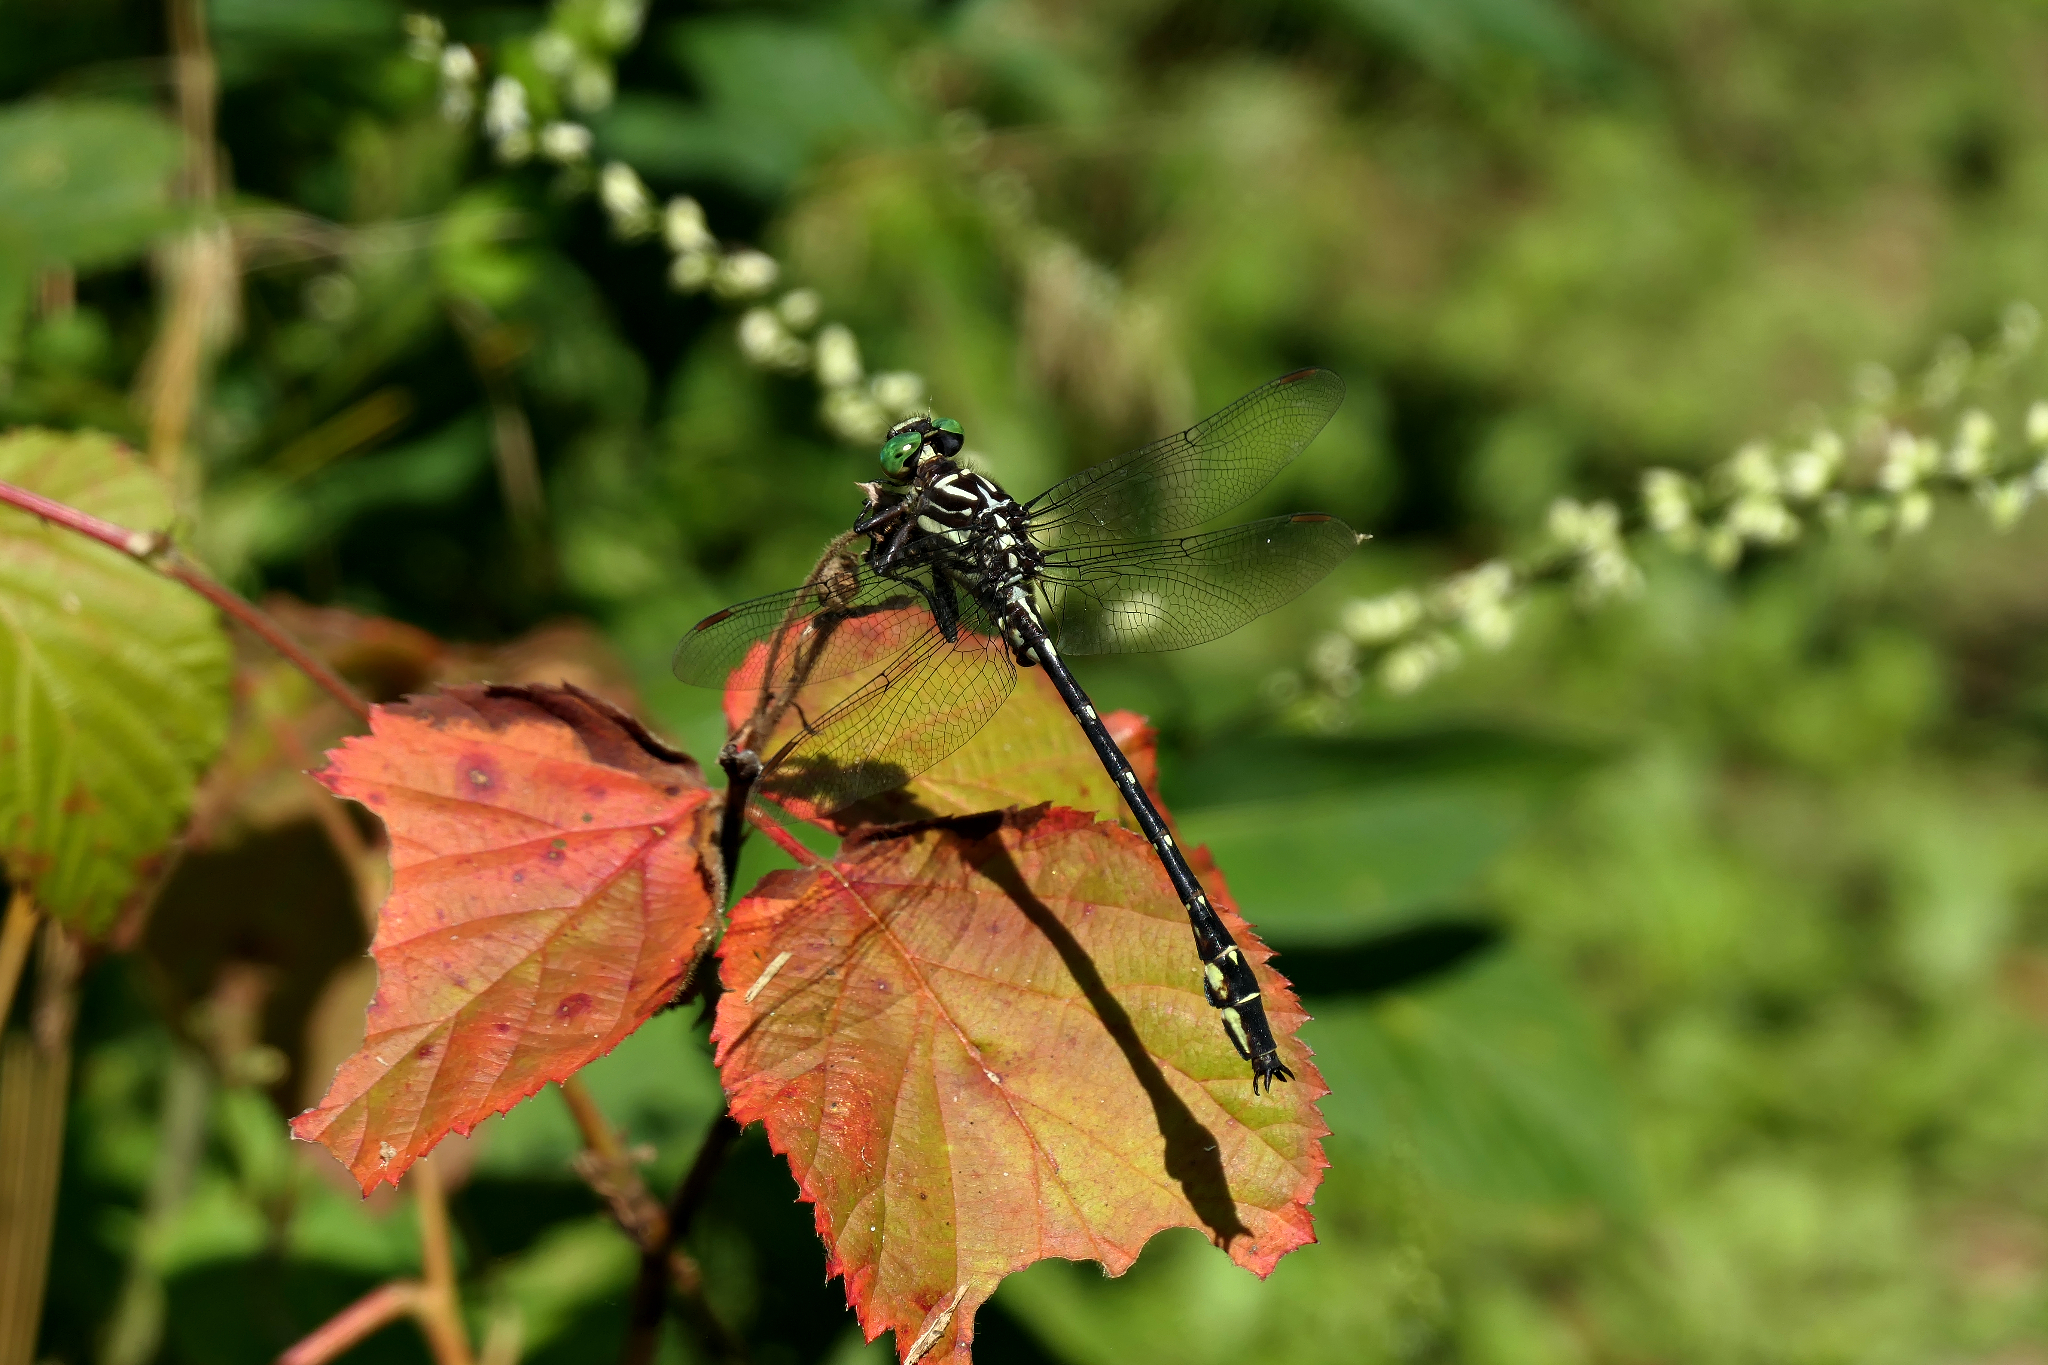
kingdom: Animalia
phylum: Arthropoda
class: Insecta
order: Odonata
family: Gomphidae
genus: Stylurus
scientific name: Stylurus spiniceps
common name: Arrow clubtail
